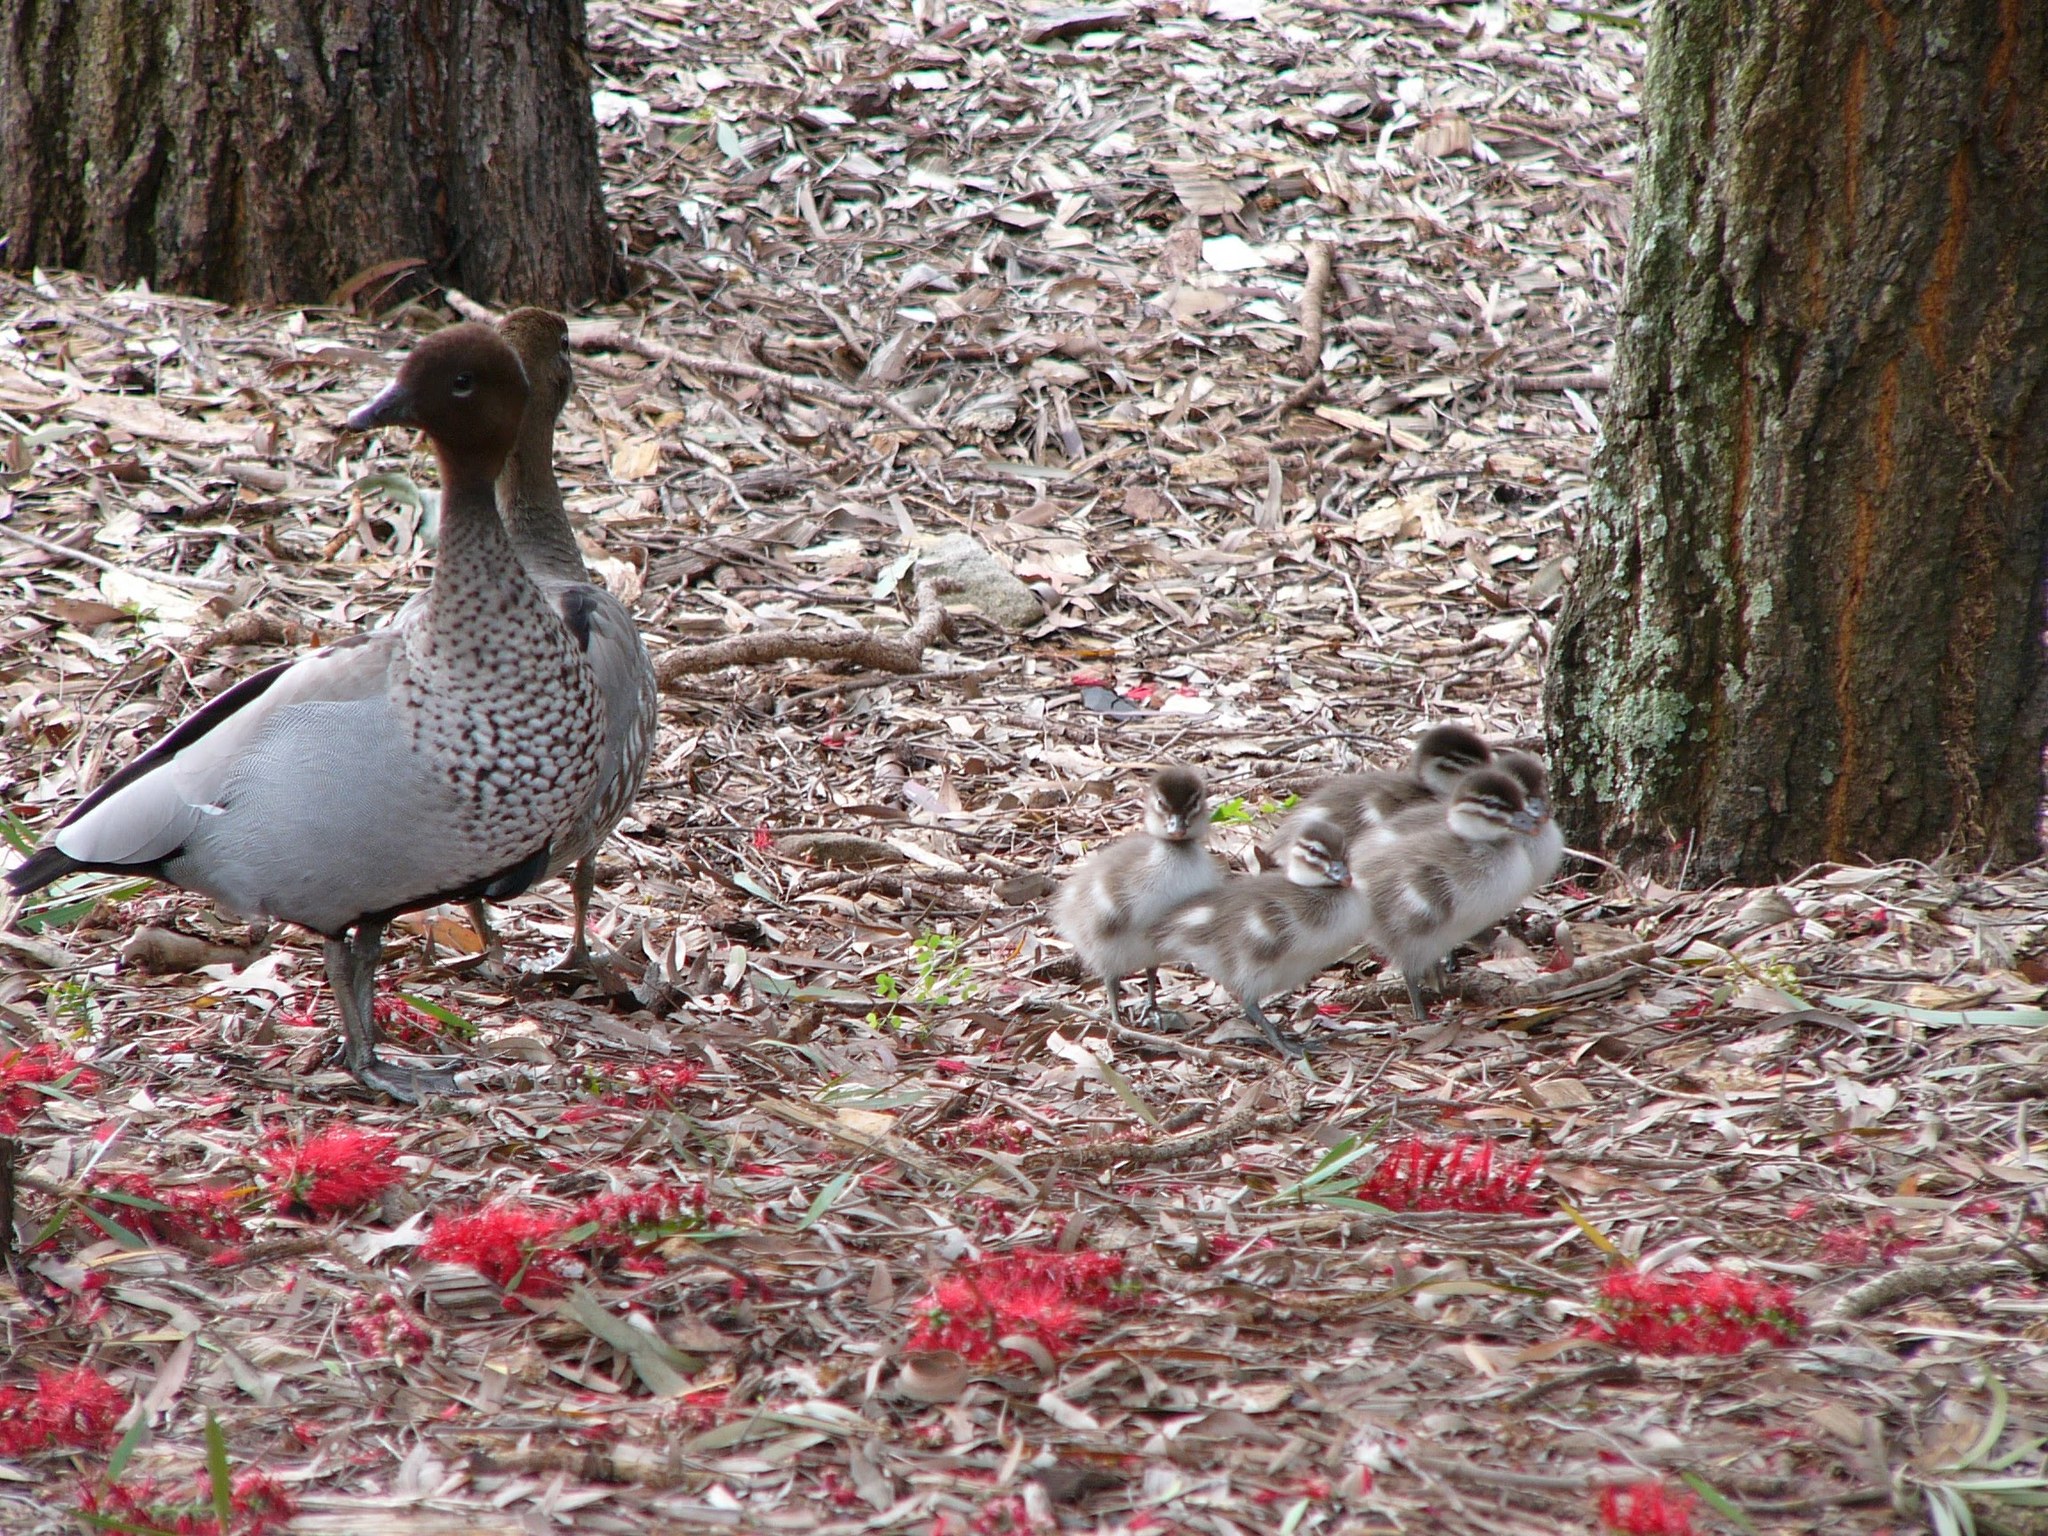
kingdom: Animalia
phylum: Chordata
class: Aves
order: Anseriformes
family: Anatidae
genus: Chenonetta
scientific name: Chenonetta jubata
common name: Maned duck
